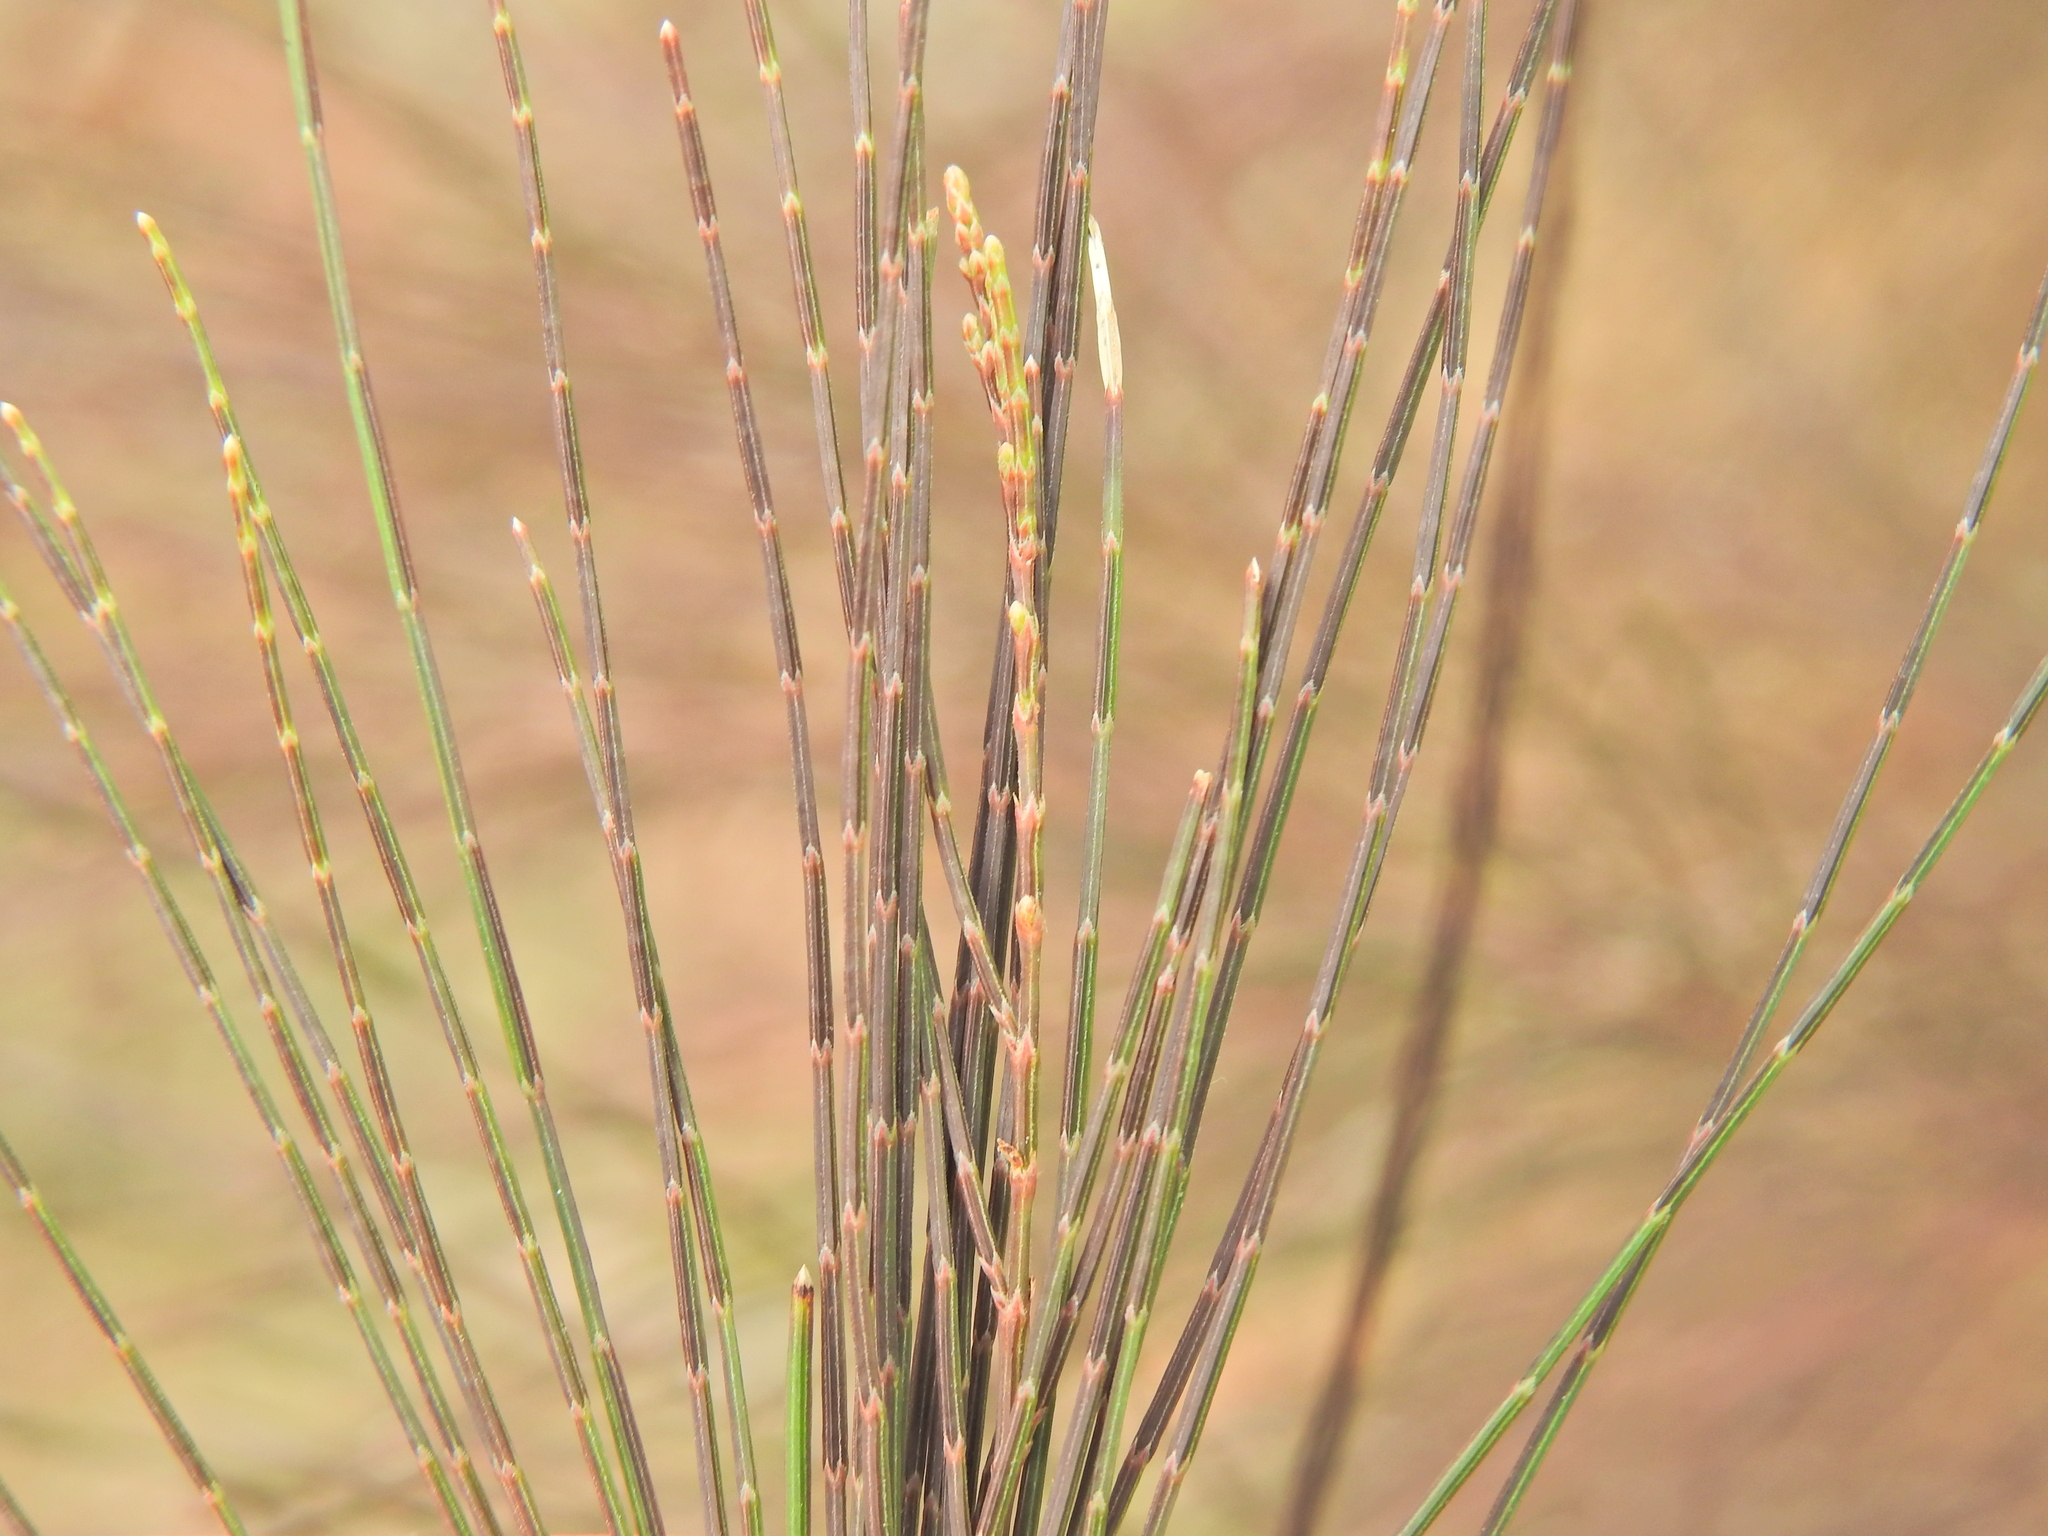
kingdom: Plantae
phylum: Tracheophyta
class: Magnoliopsida
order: Fagales
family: Casuarinaceae
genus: Allocasuarina
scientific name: Allocasuarina torulosa
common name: Forest-oak
